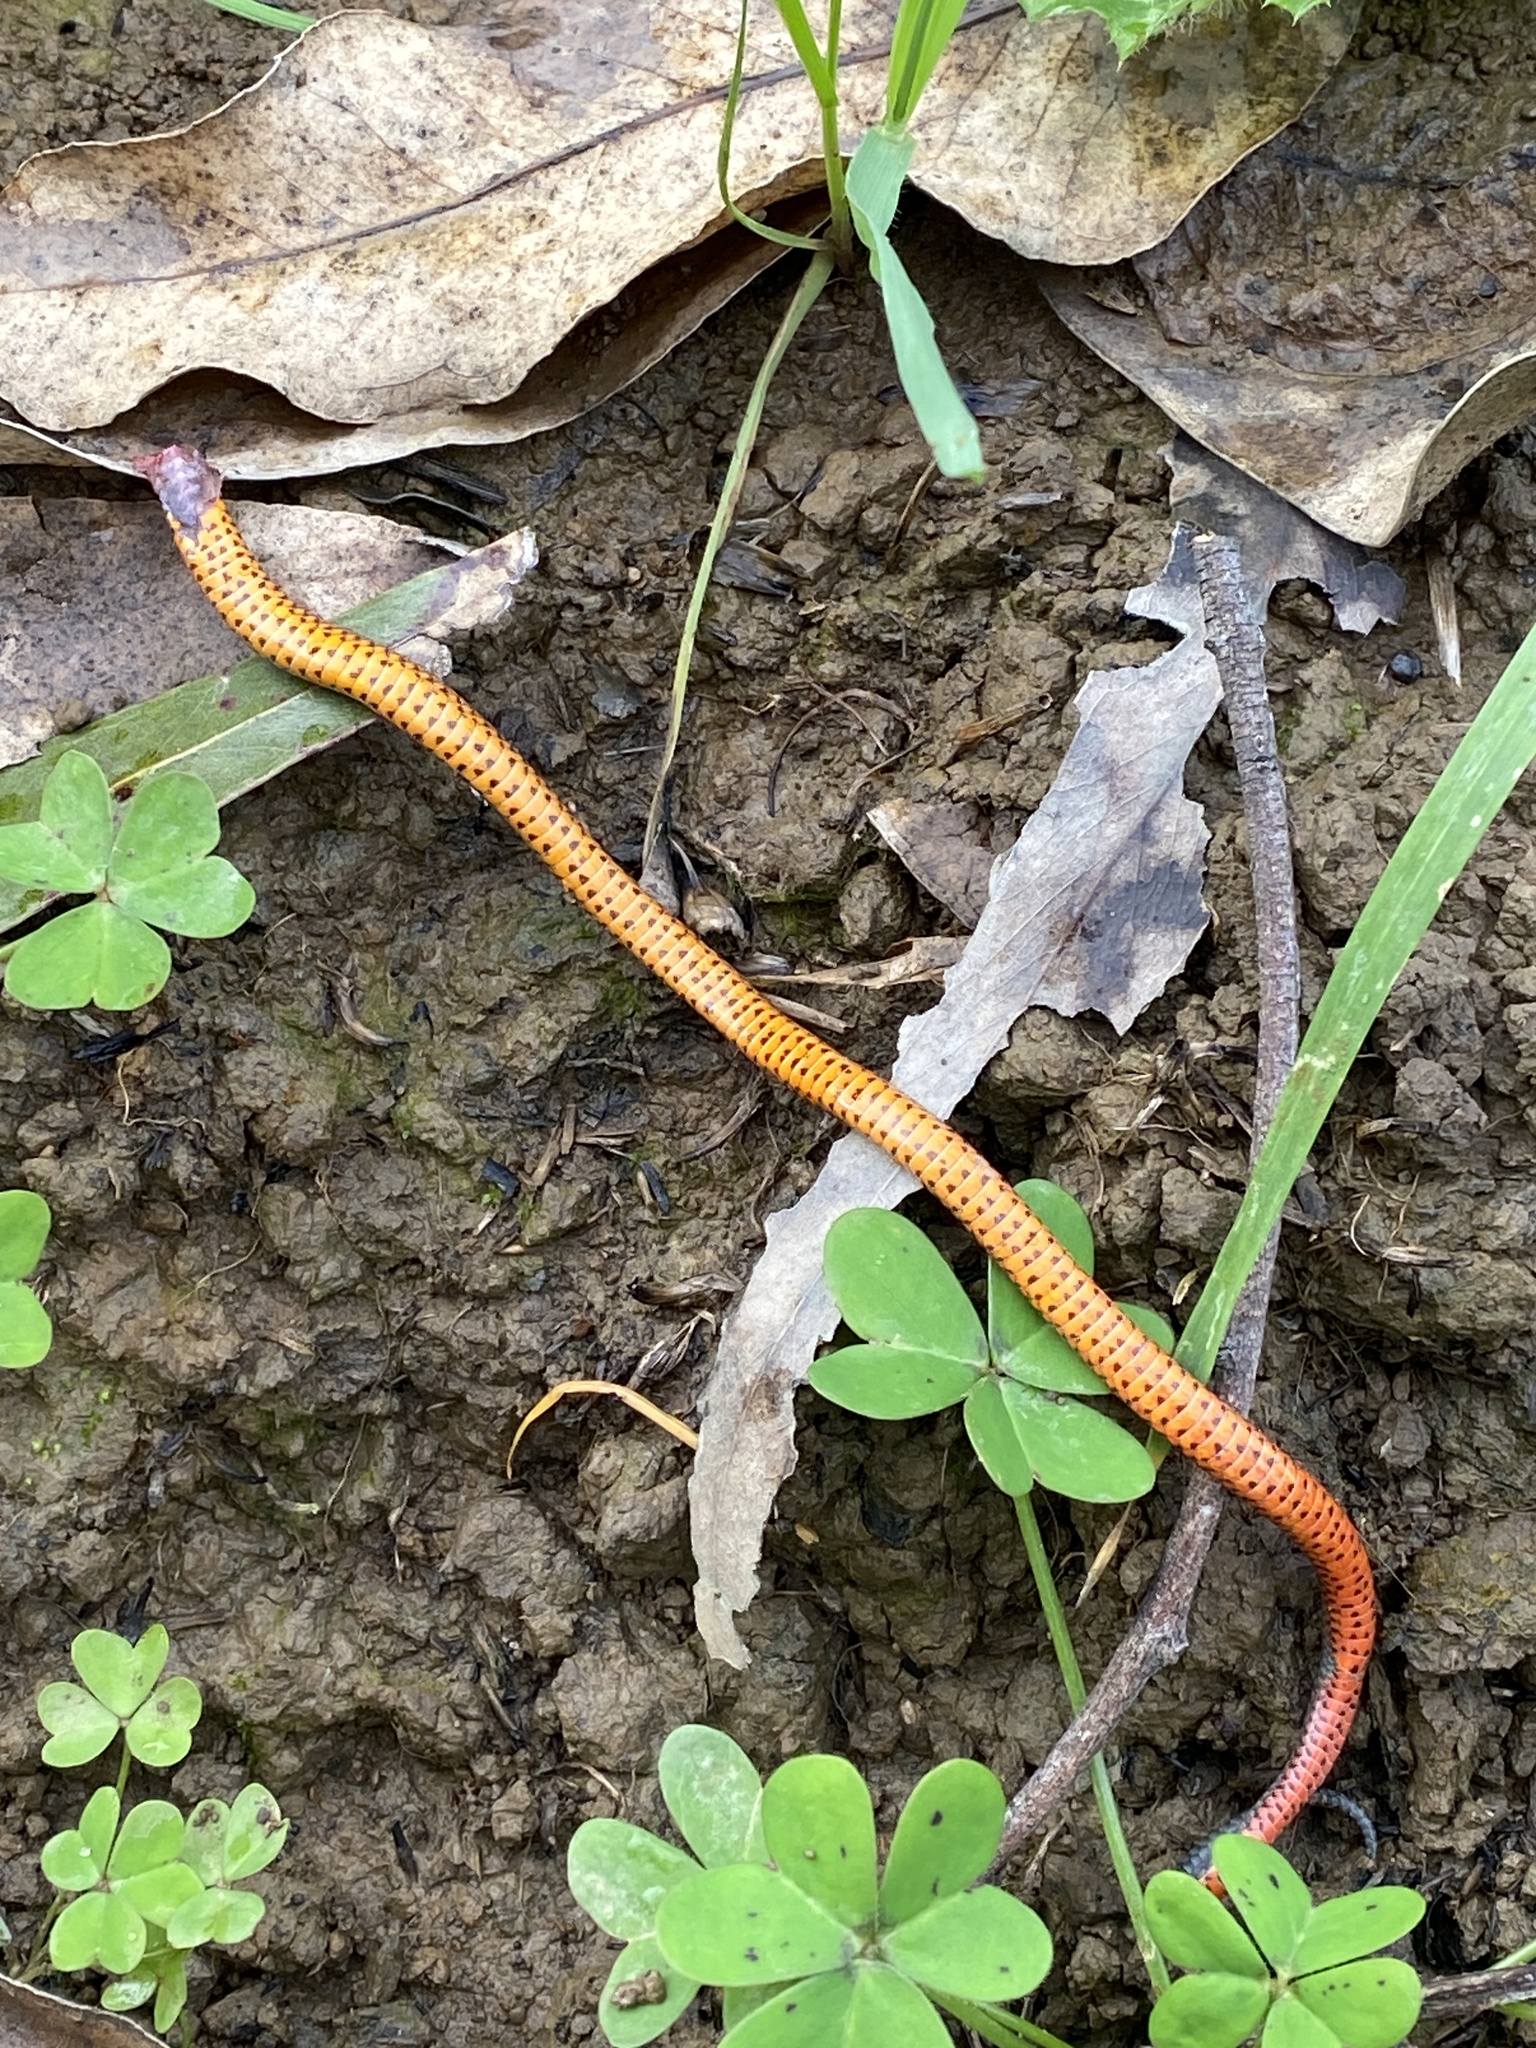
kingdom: Animalia
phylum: Chordata
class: Squamata
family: Colubridae
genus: Diadophis
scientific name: Diadophis punctatus
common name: Ringneck snake
